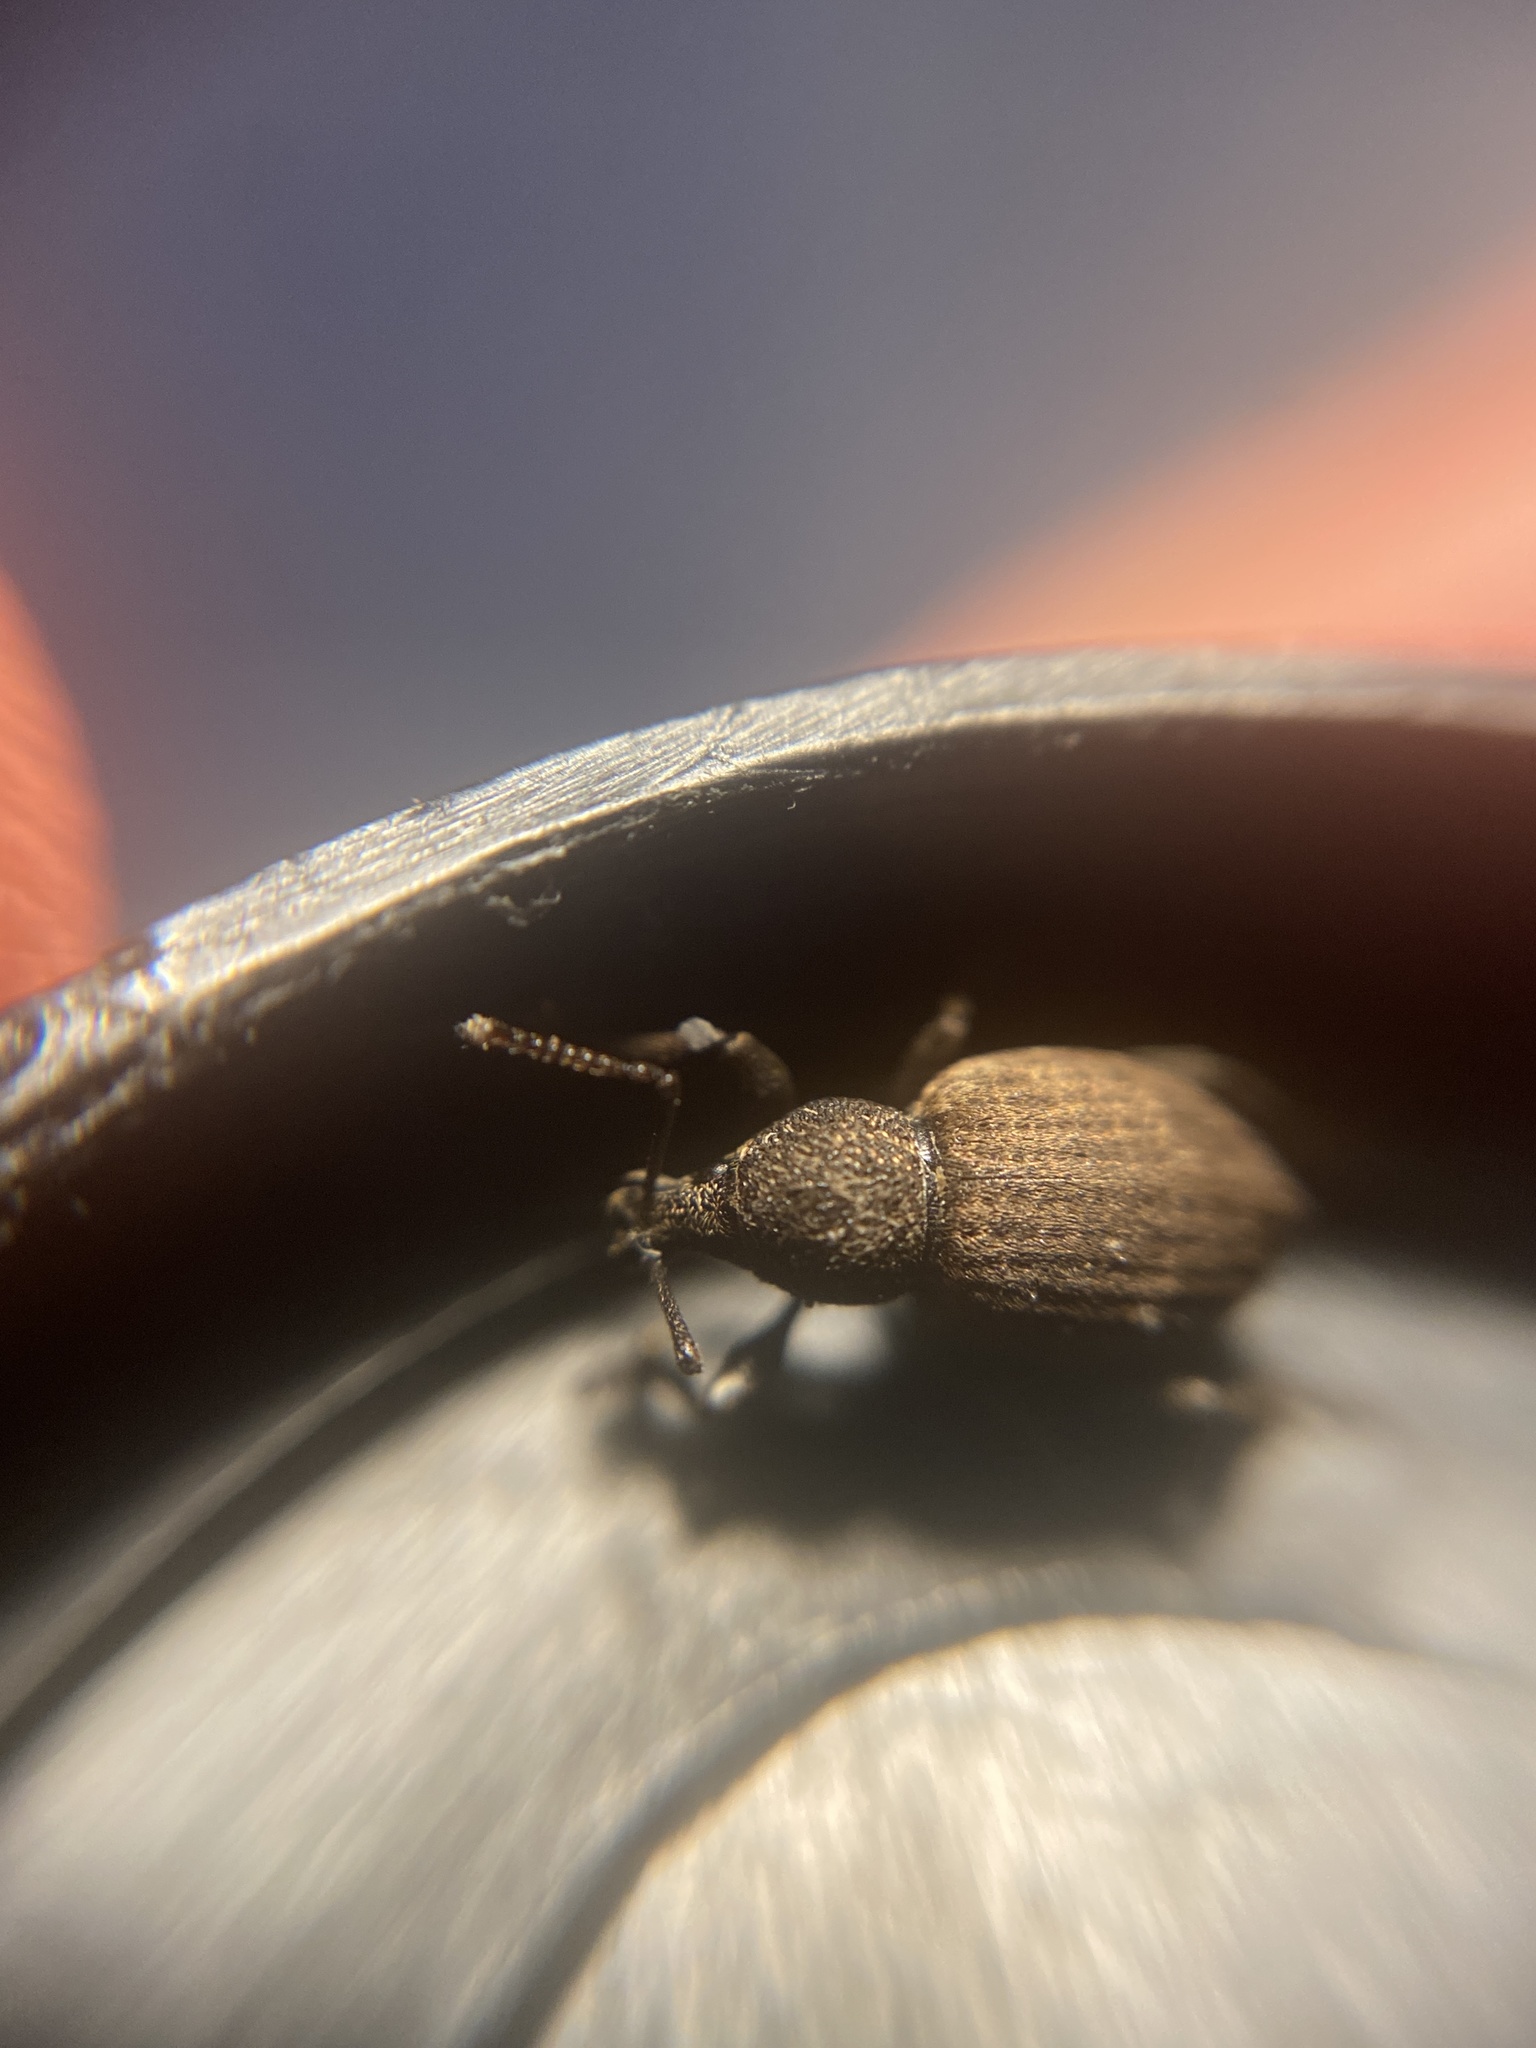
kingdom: Animalia
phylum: Arthropoda
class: Insecta
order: Coleoptera
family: Curculionidae
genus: Otiorhynchus
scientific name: Otiorhynchus raucus
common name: Weevil
